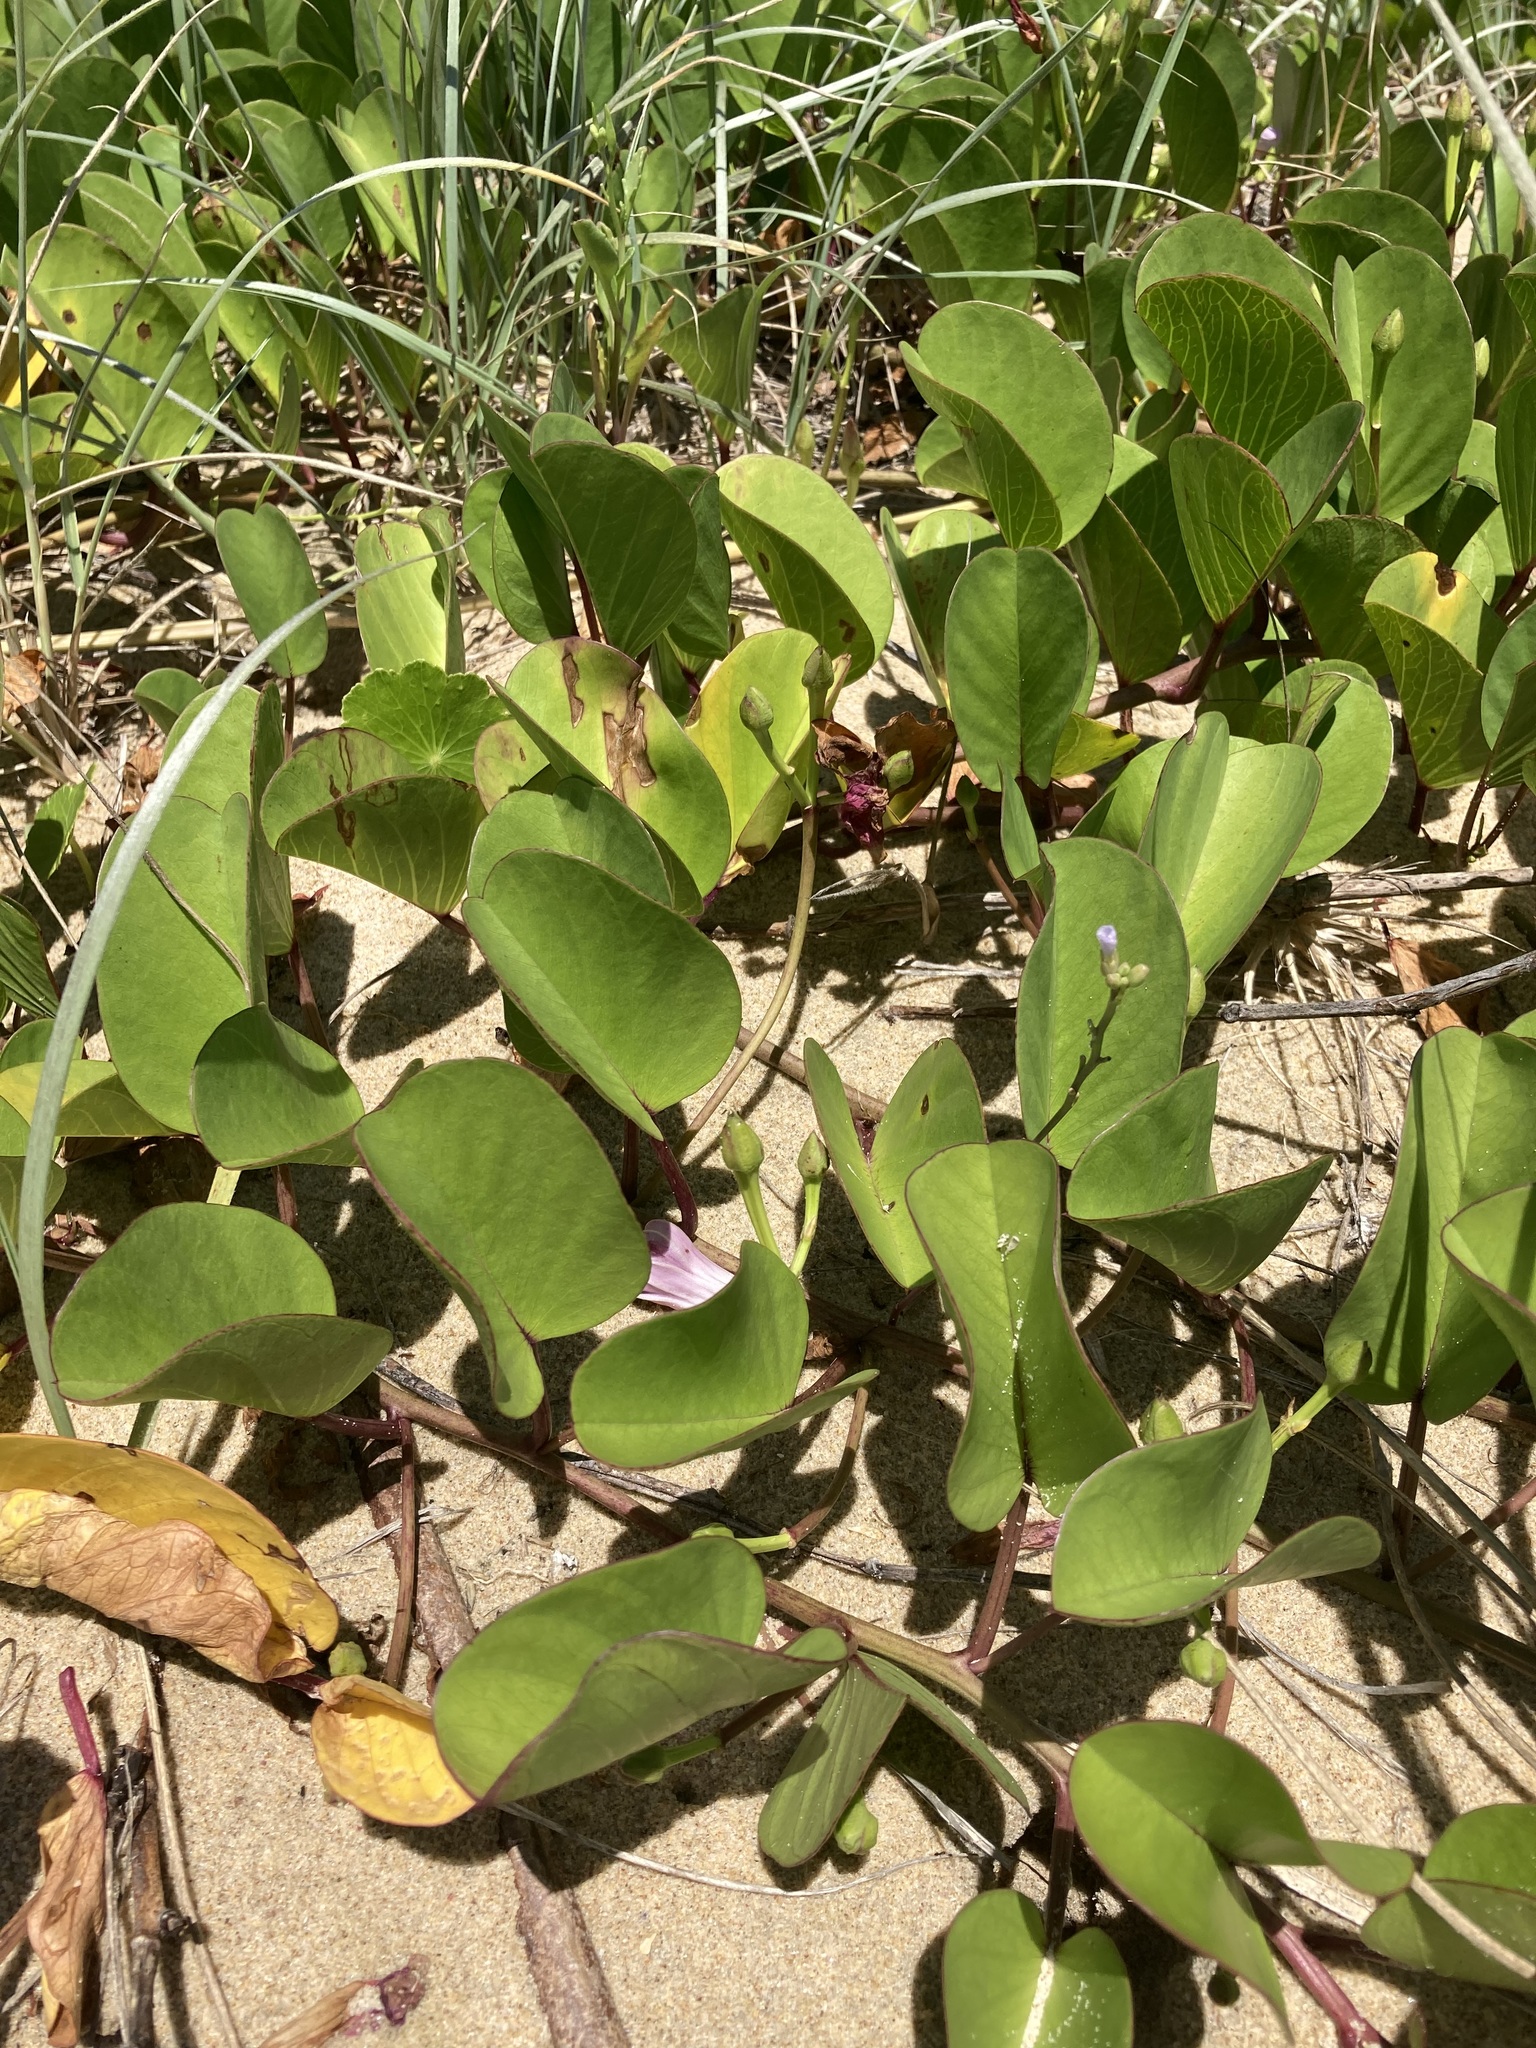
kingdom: Plantae
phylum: Tracheophyta
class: Magnoliopsida
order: Solanales
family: Convolvulaceae
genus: Ipomoea
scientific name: Ipomoea pes-caprae
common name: Beach morning glory
